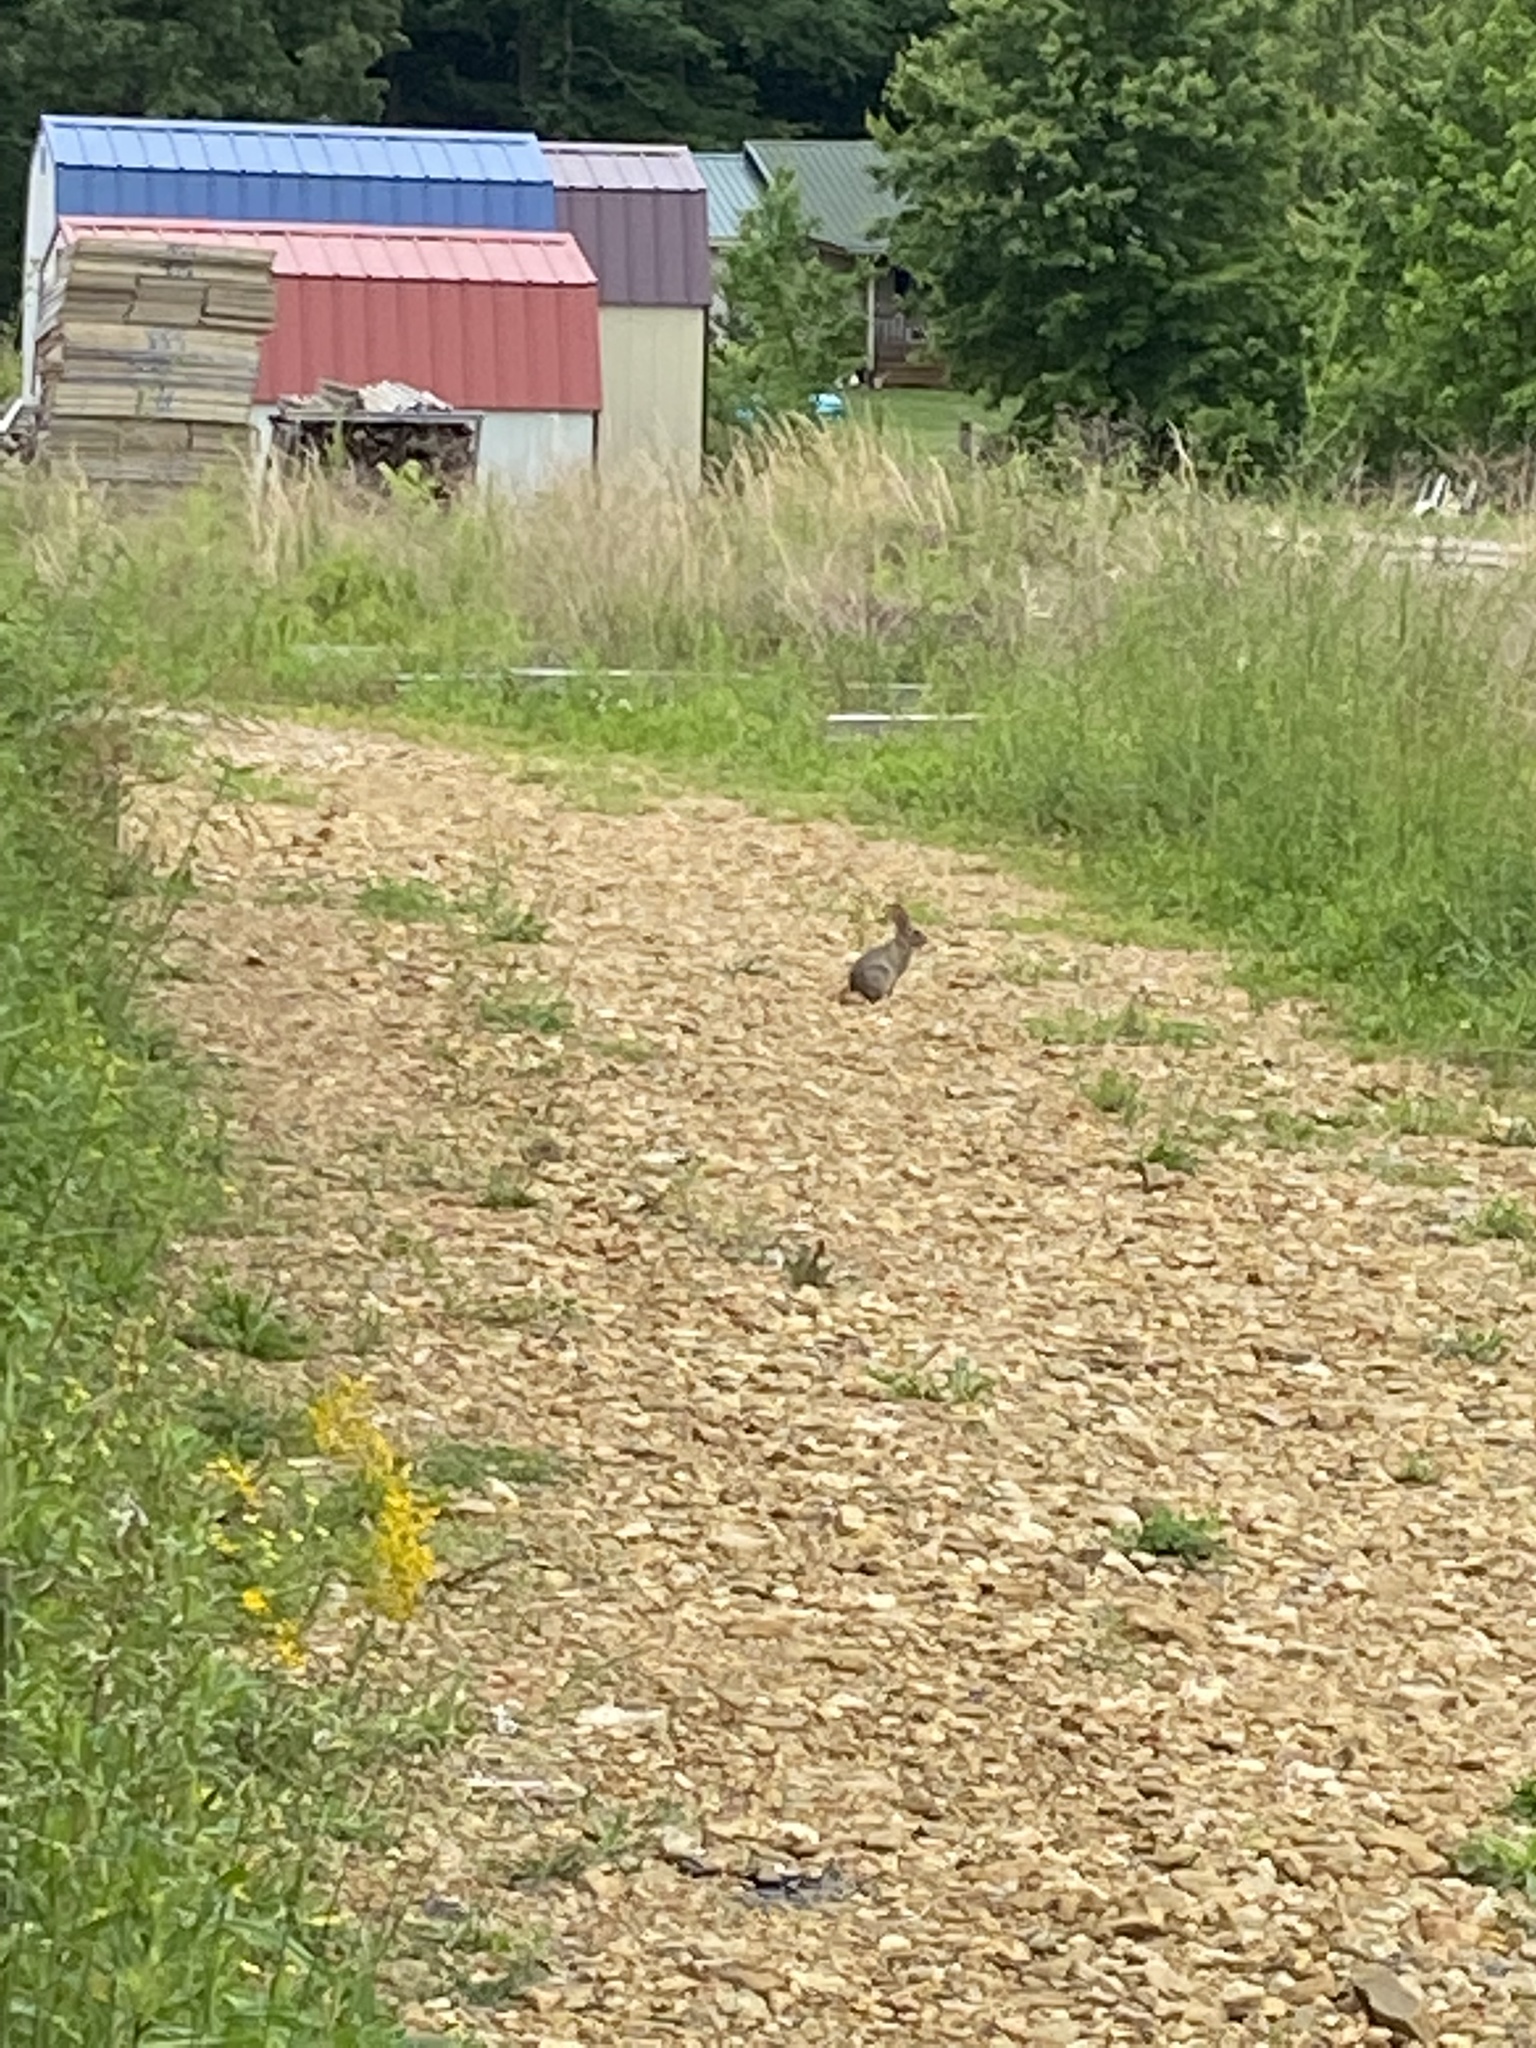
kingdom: Animalia
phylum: Chordata
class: Mammalia
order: Lagomorpha
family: Leporidae
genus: Sylvilagus
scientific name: Sylvilagus floridanus
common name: Eastern cottontail
